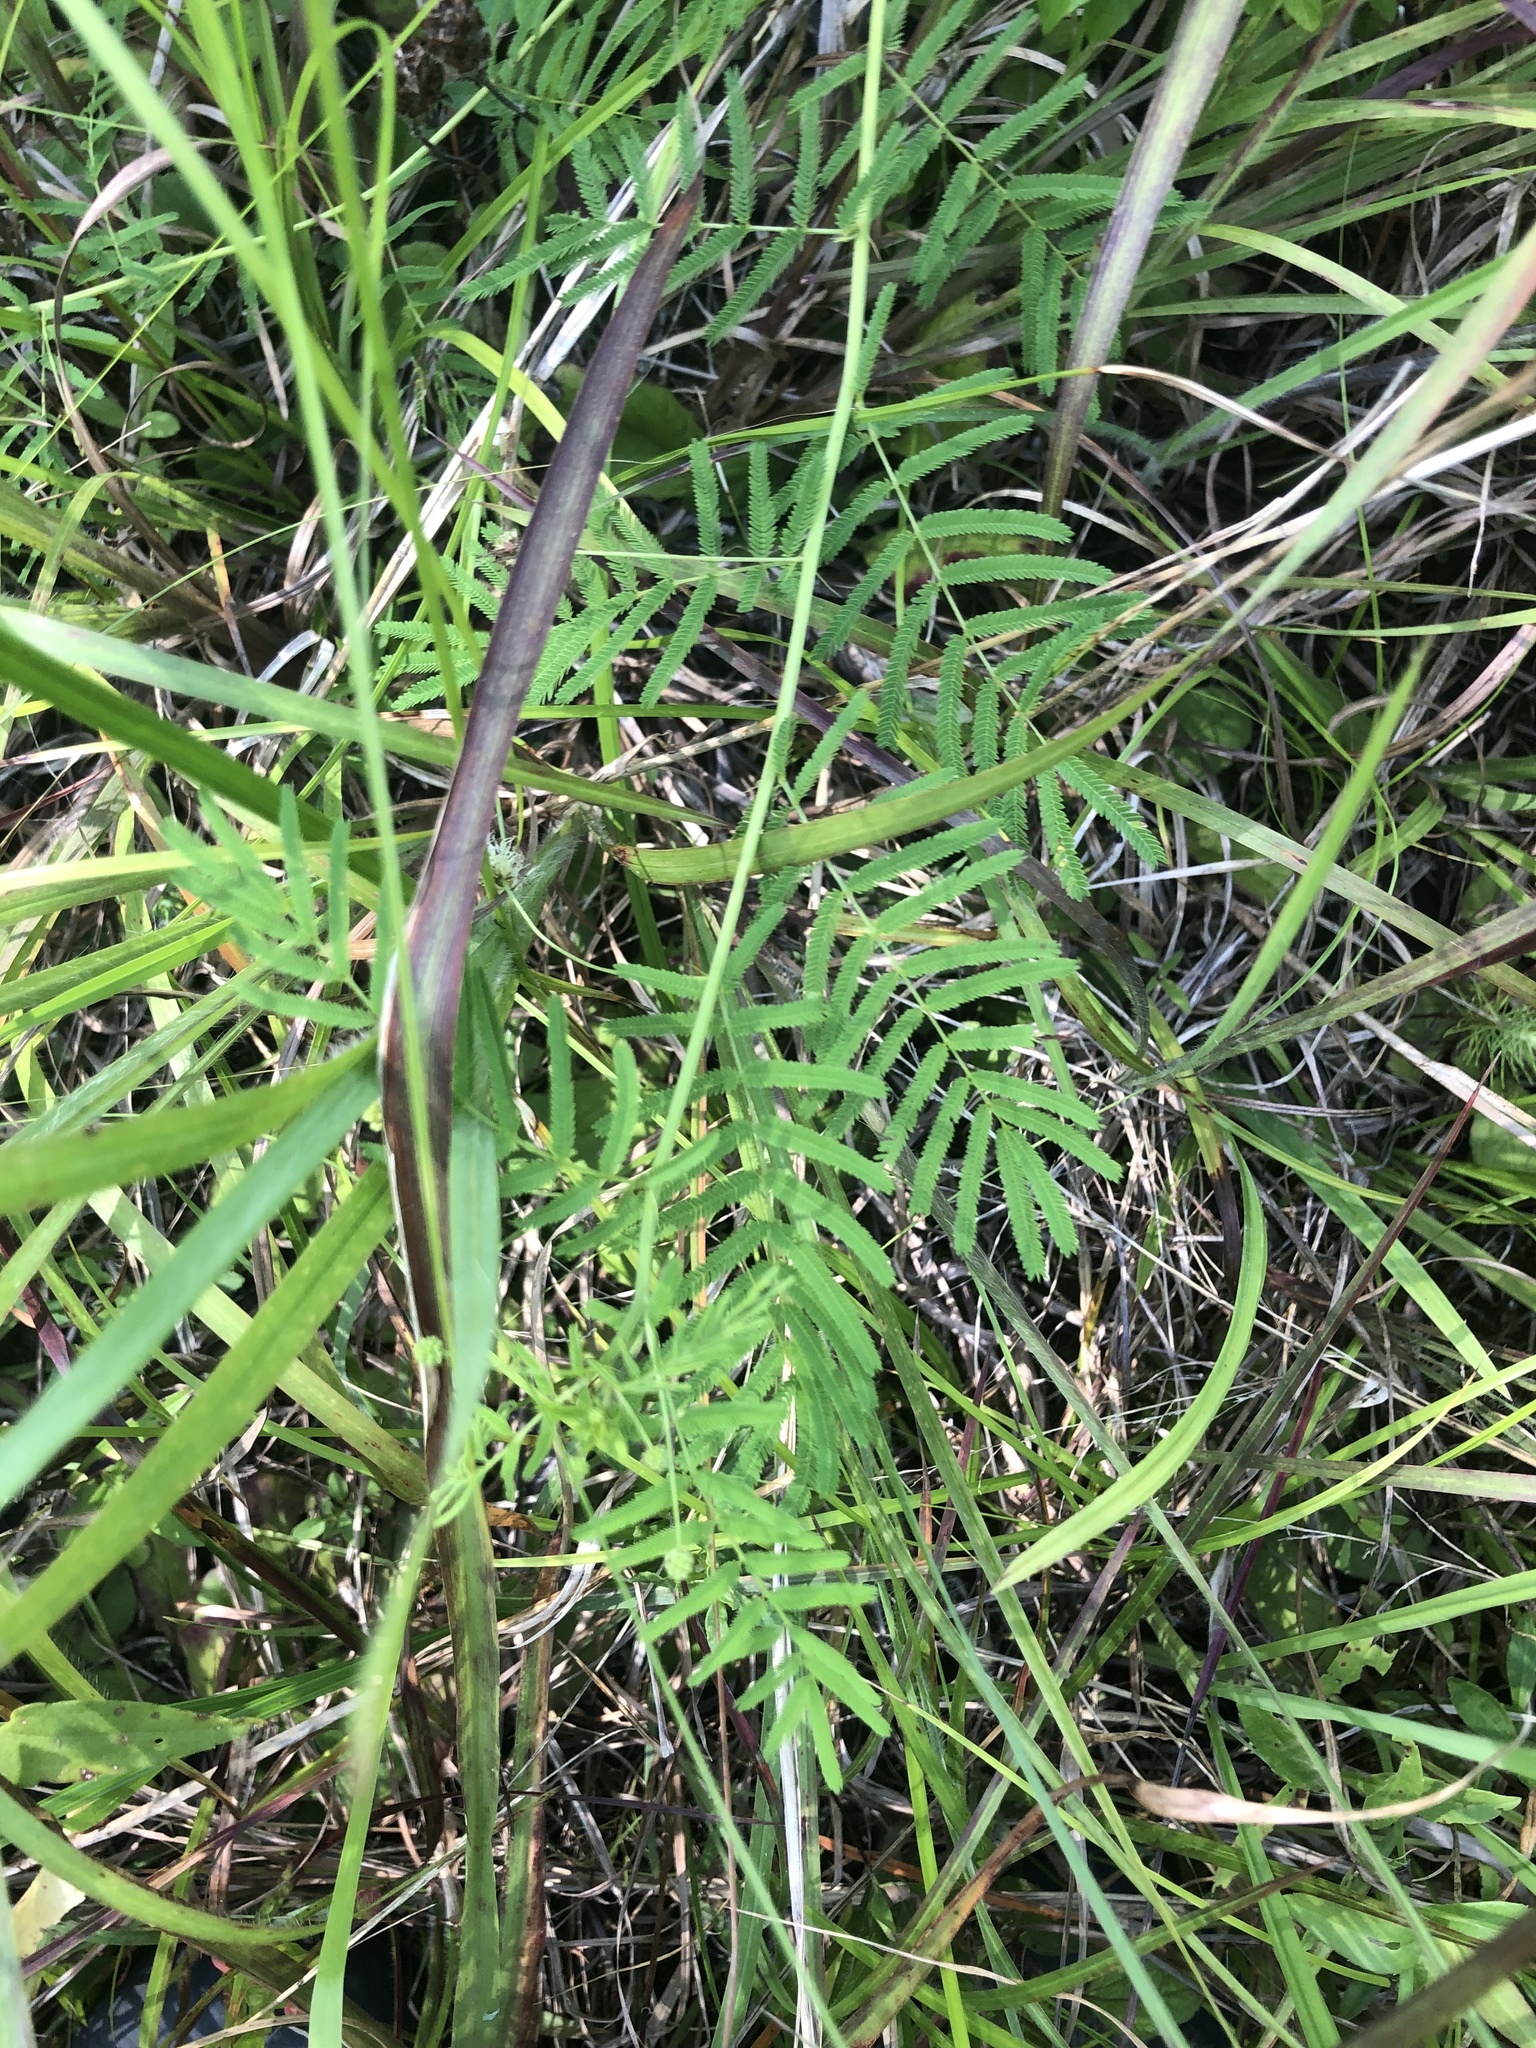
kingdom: Plantae
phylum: Tracheophyta
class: Magnoliopsida
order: Fabales
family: Fabaceae
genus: Desmanthus
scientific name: Desmanthus illinoensis
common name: Illinois bundle-flower
